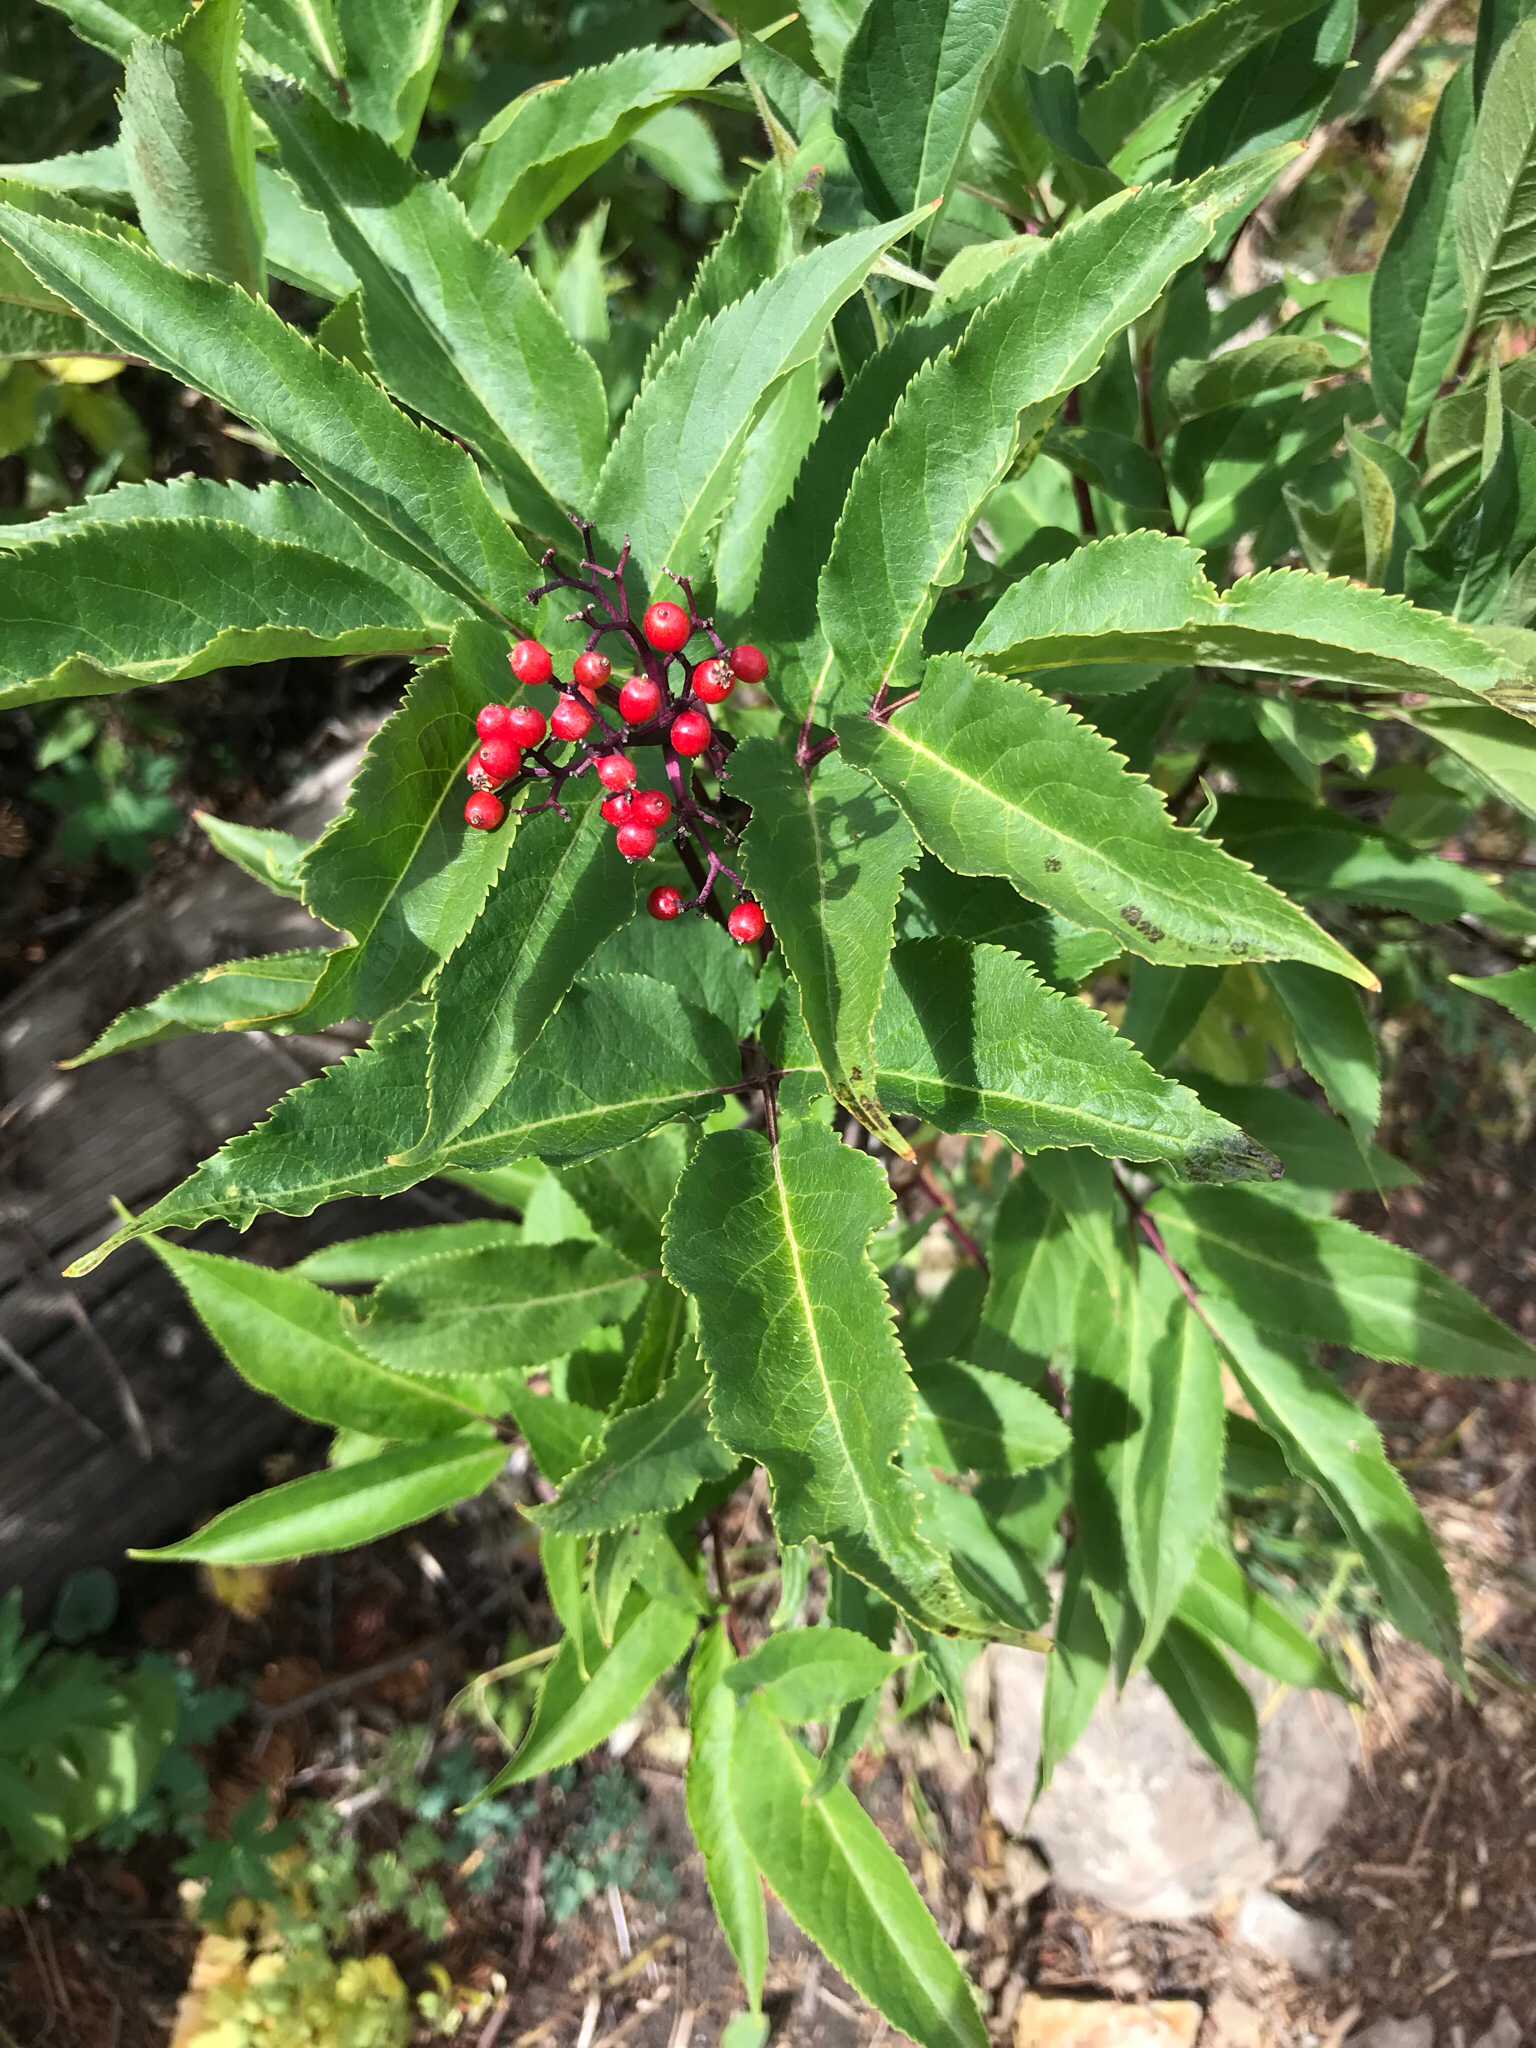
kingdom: Plantae
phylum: Tracheophyta
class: Magnoliopsida
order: Dipsacales
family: Viburnaceae
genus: Sambucus
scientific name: Sambucus racemosa
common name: Red-berried elder
